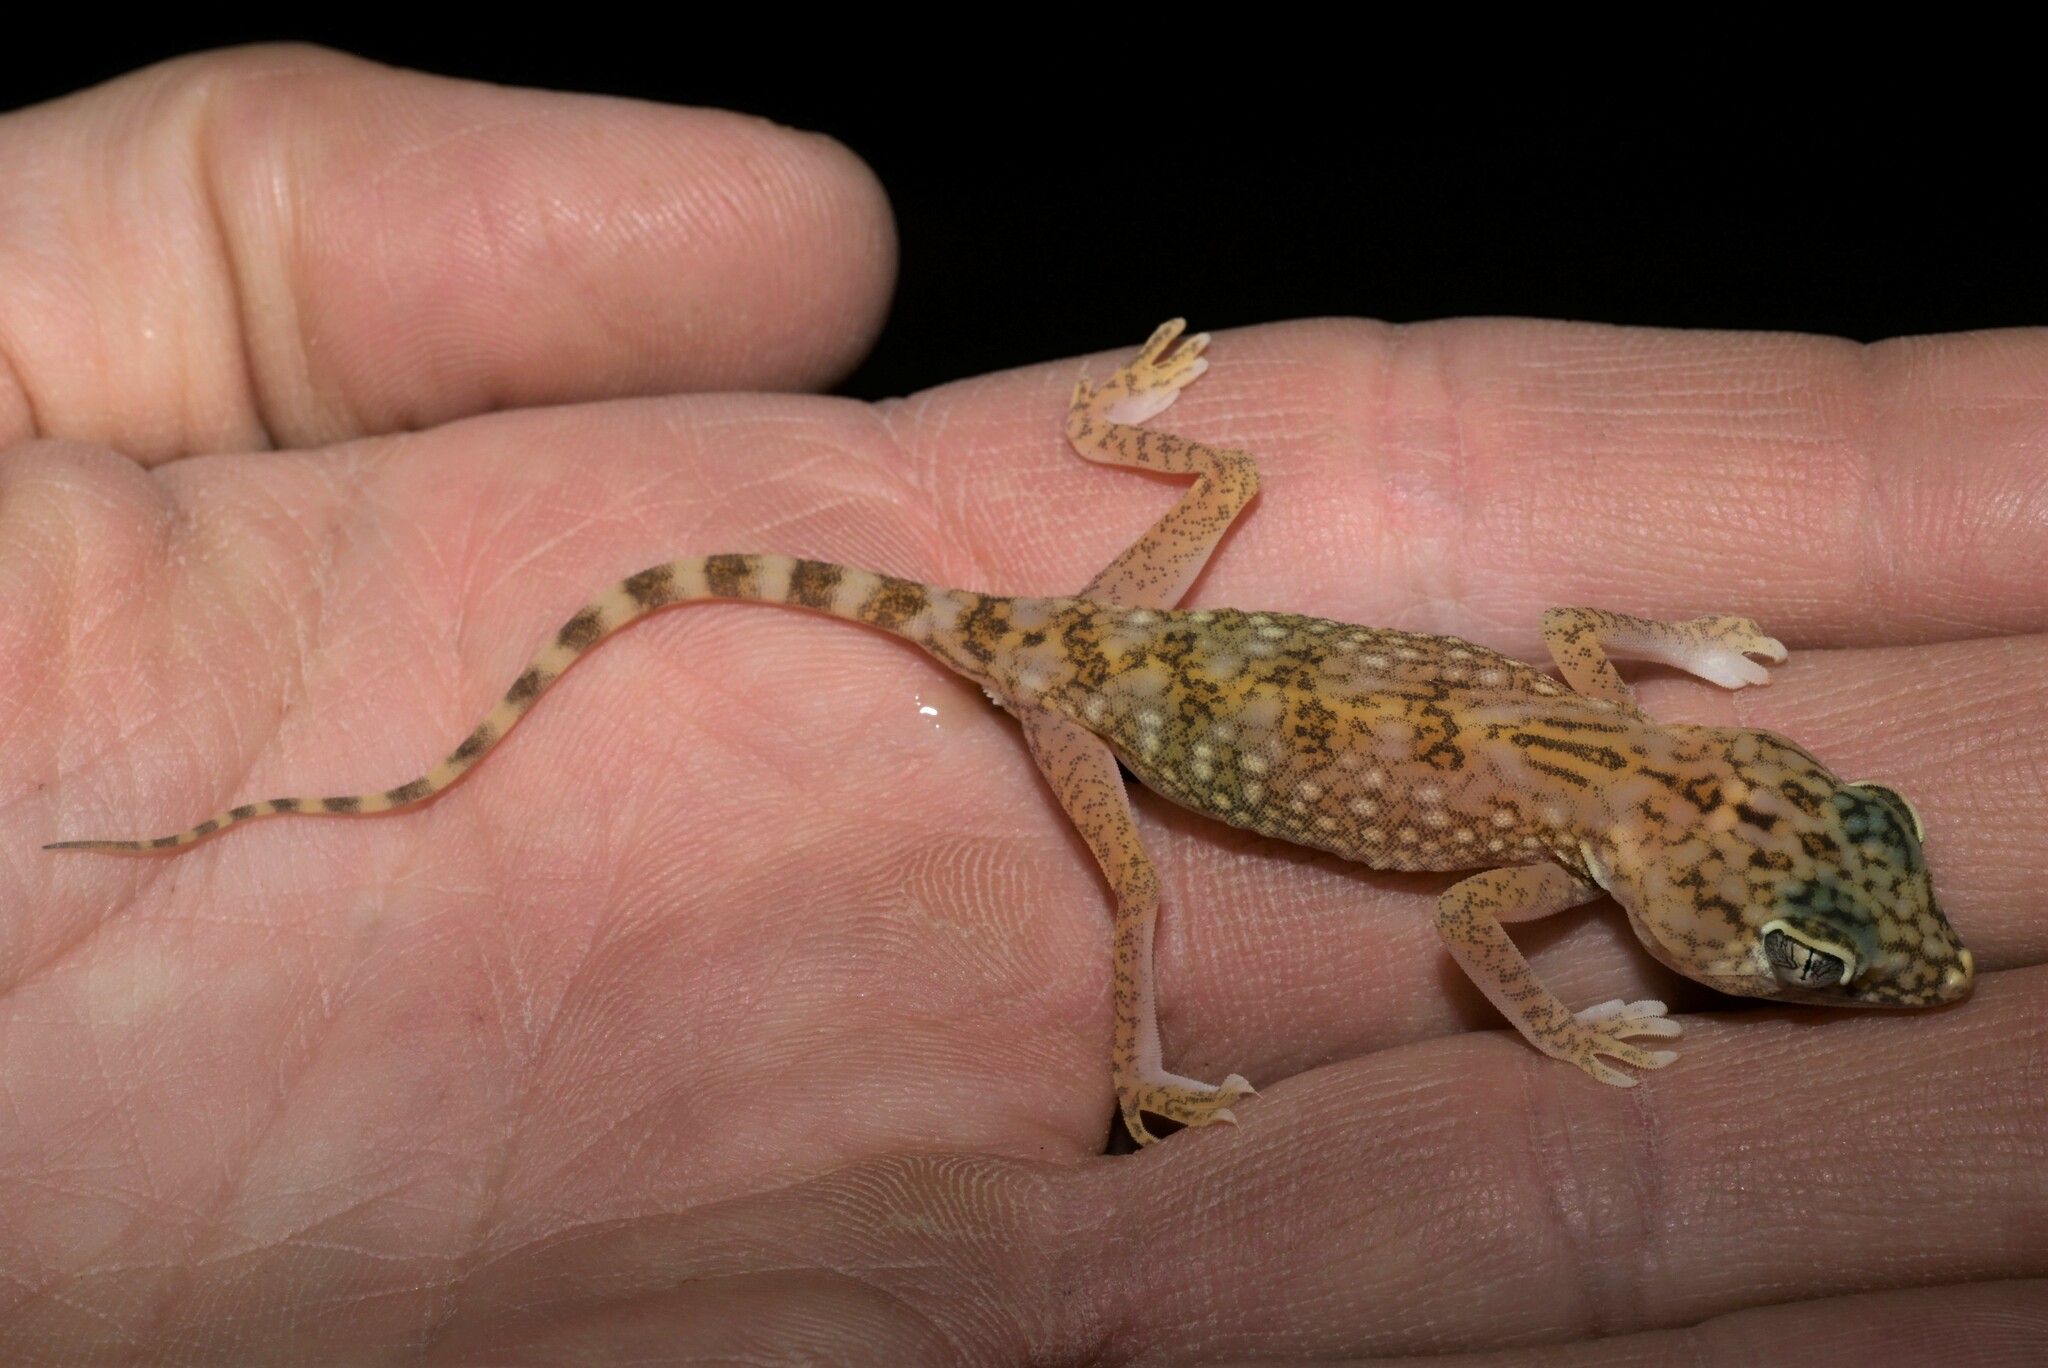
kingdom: Animalia
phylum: Chordata
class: Squamata
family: Gekkonidae
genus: Stenodactylus
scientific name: Stenodactylus doriae
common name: Dune sand gecko
